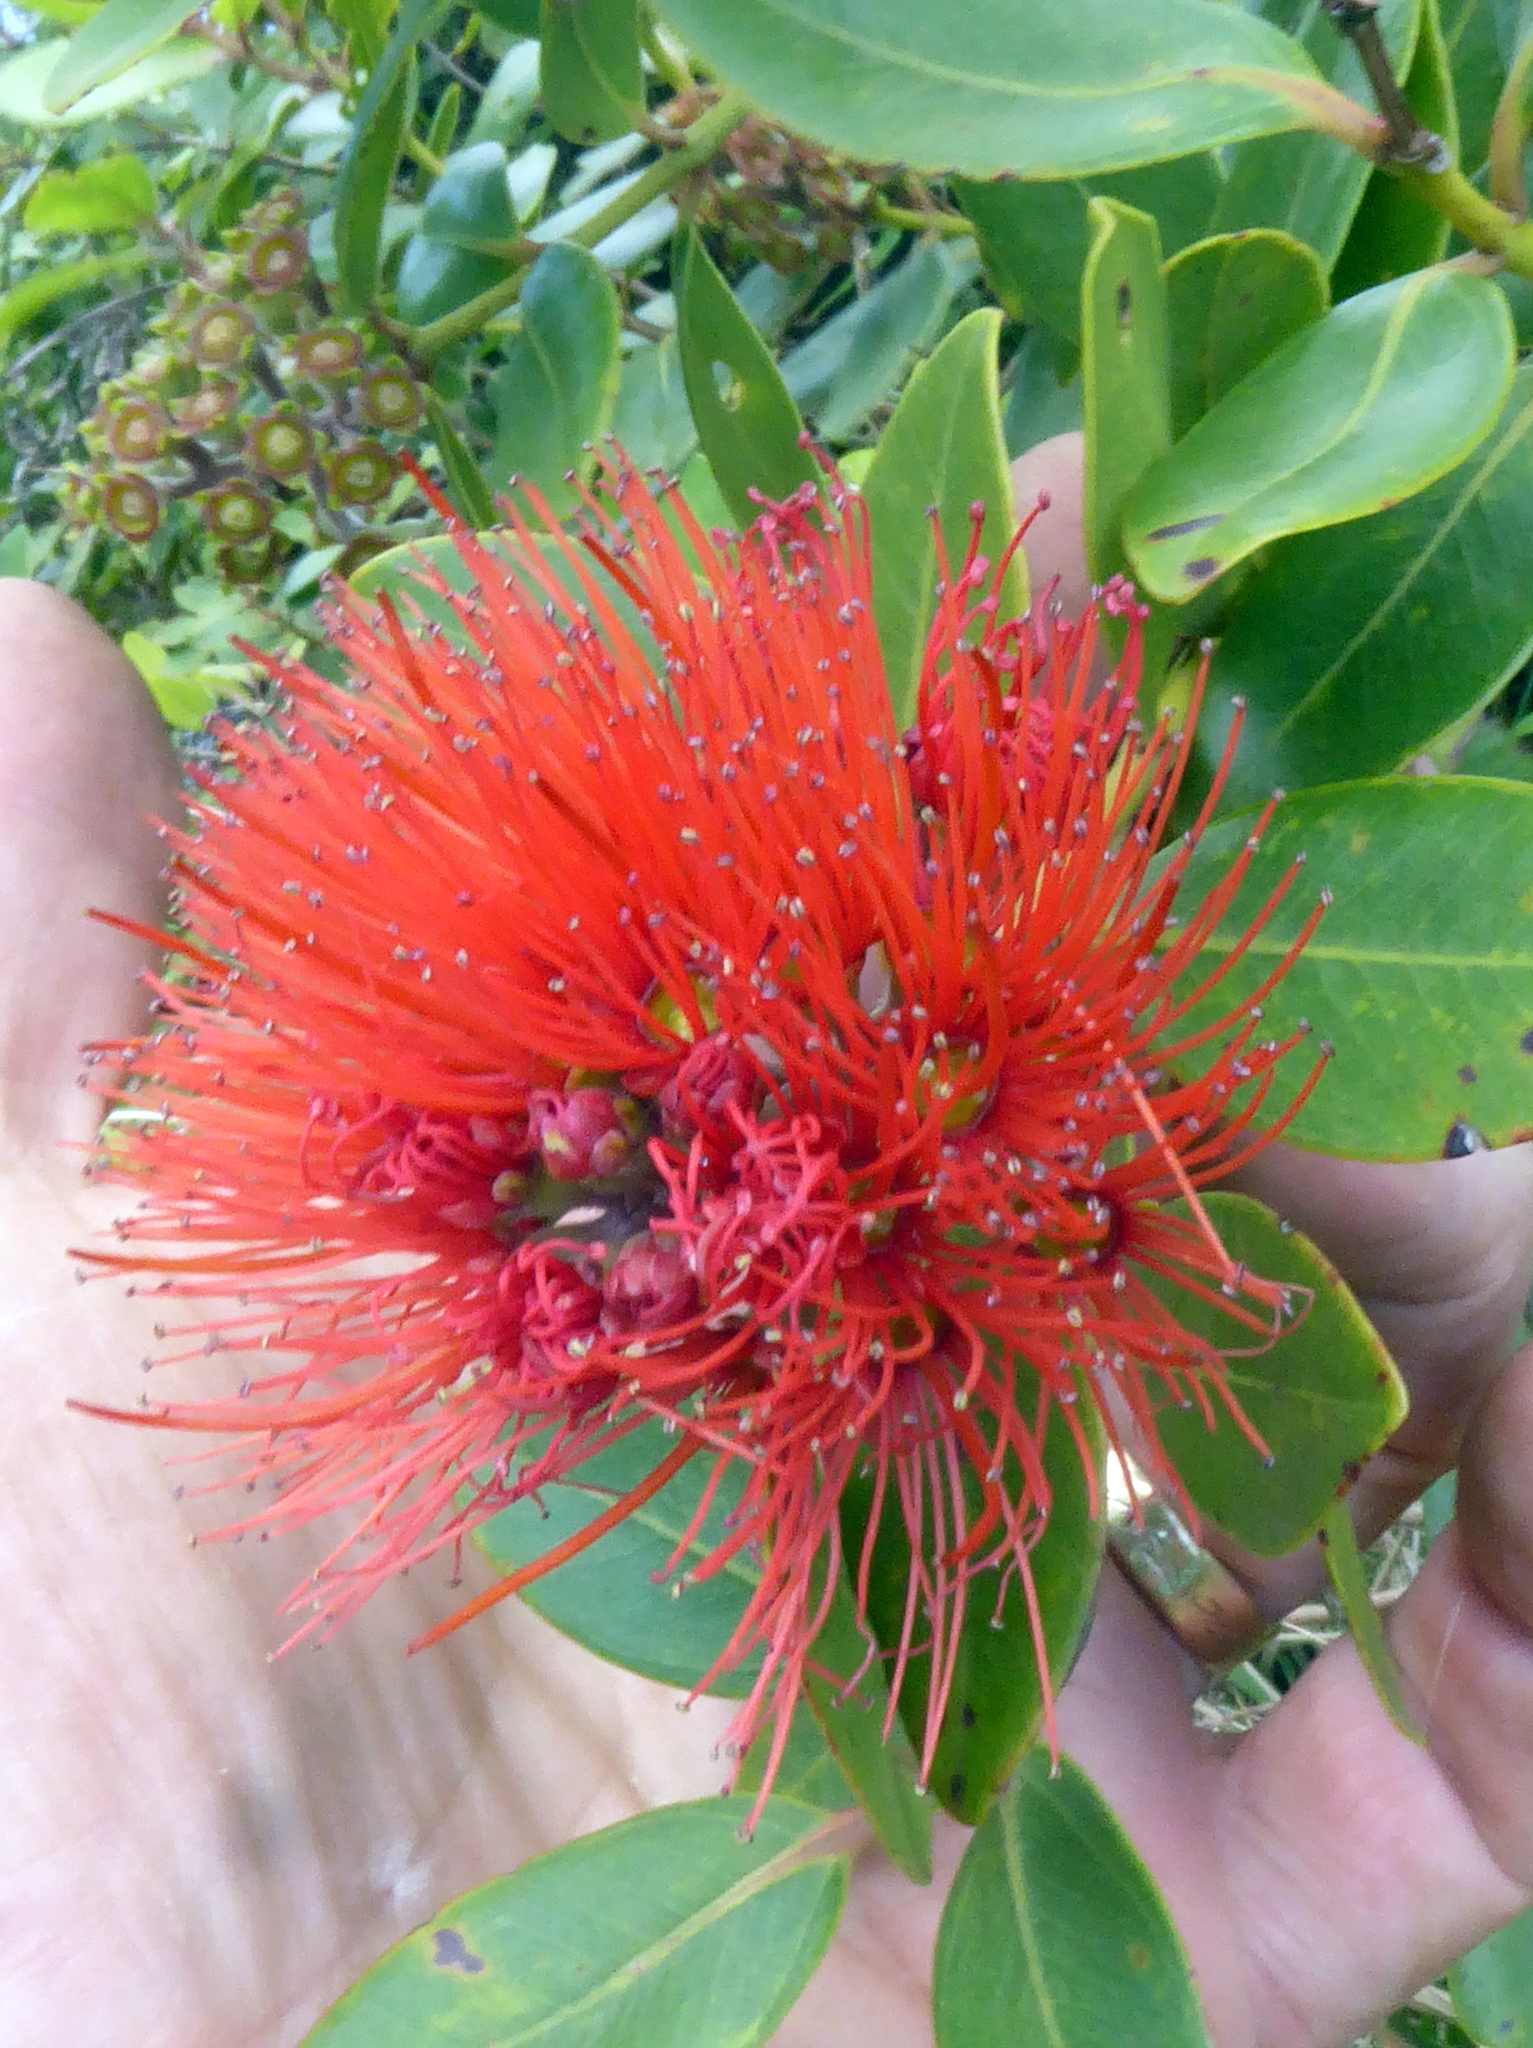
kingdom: Plantae
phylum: Tracheophyta
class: Magnoliopsida
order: Myrtales
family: Myrtaceae
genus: Metrosideros
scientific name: Metrosideros collina
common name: Vunga
